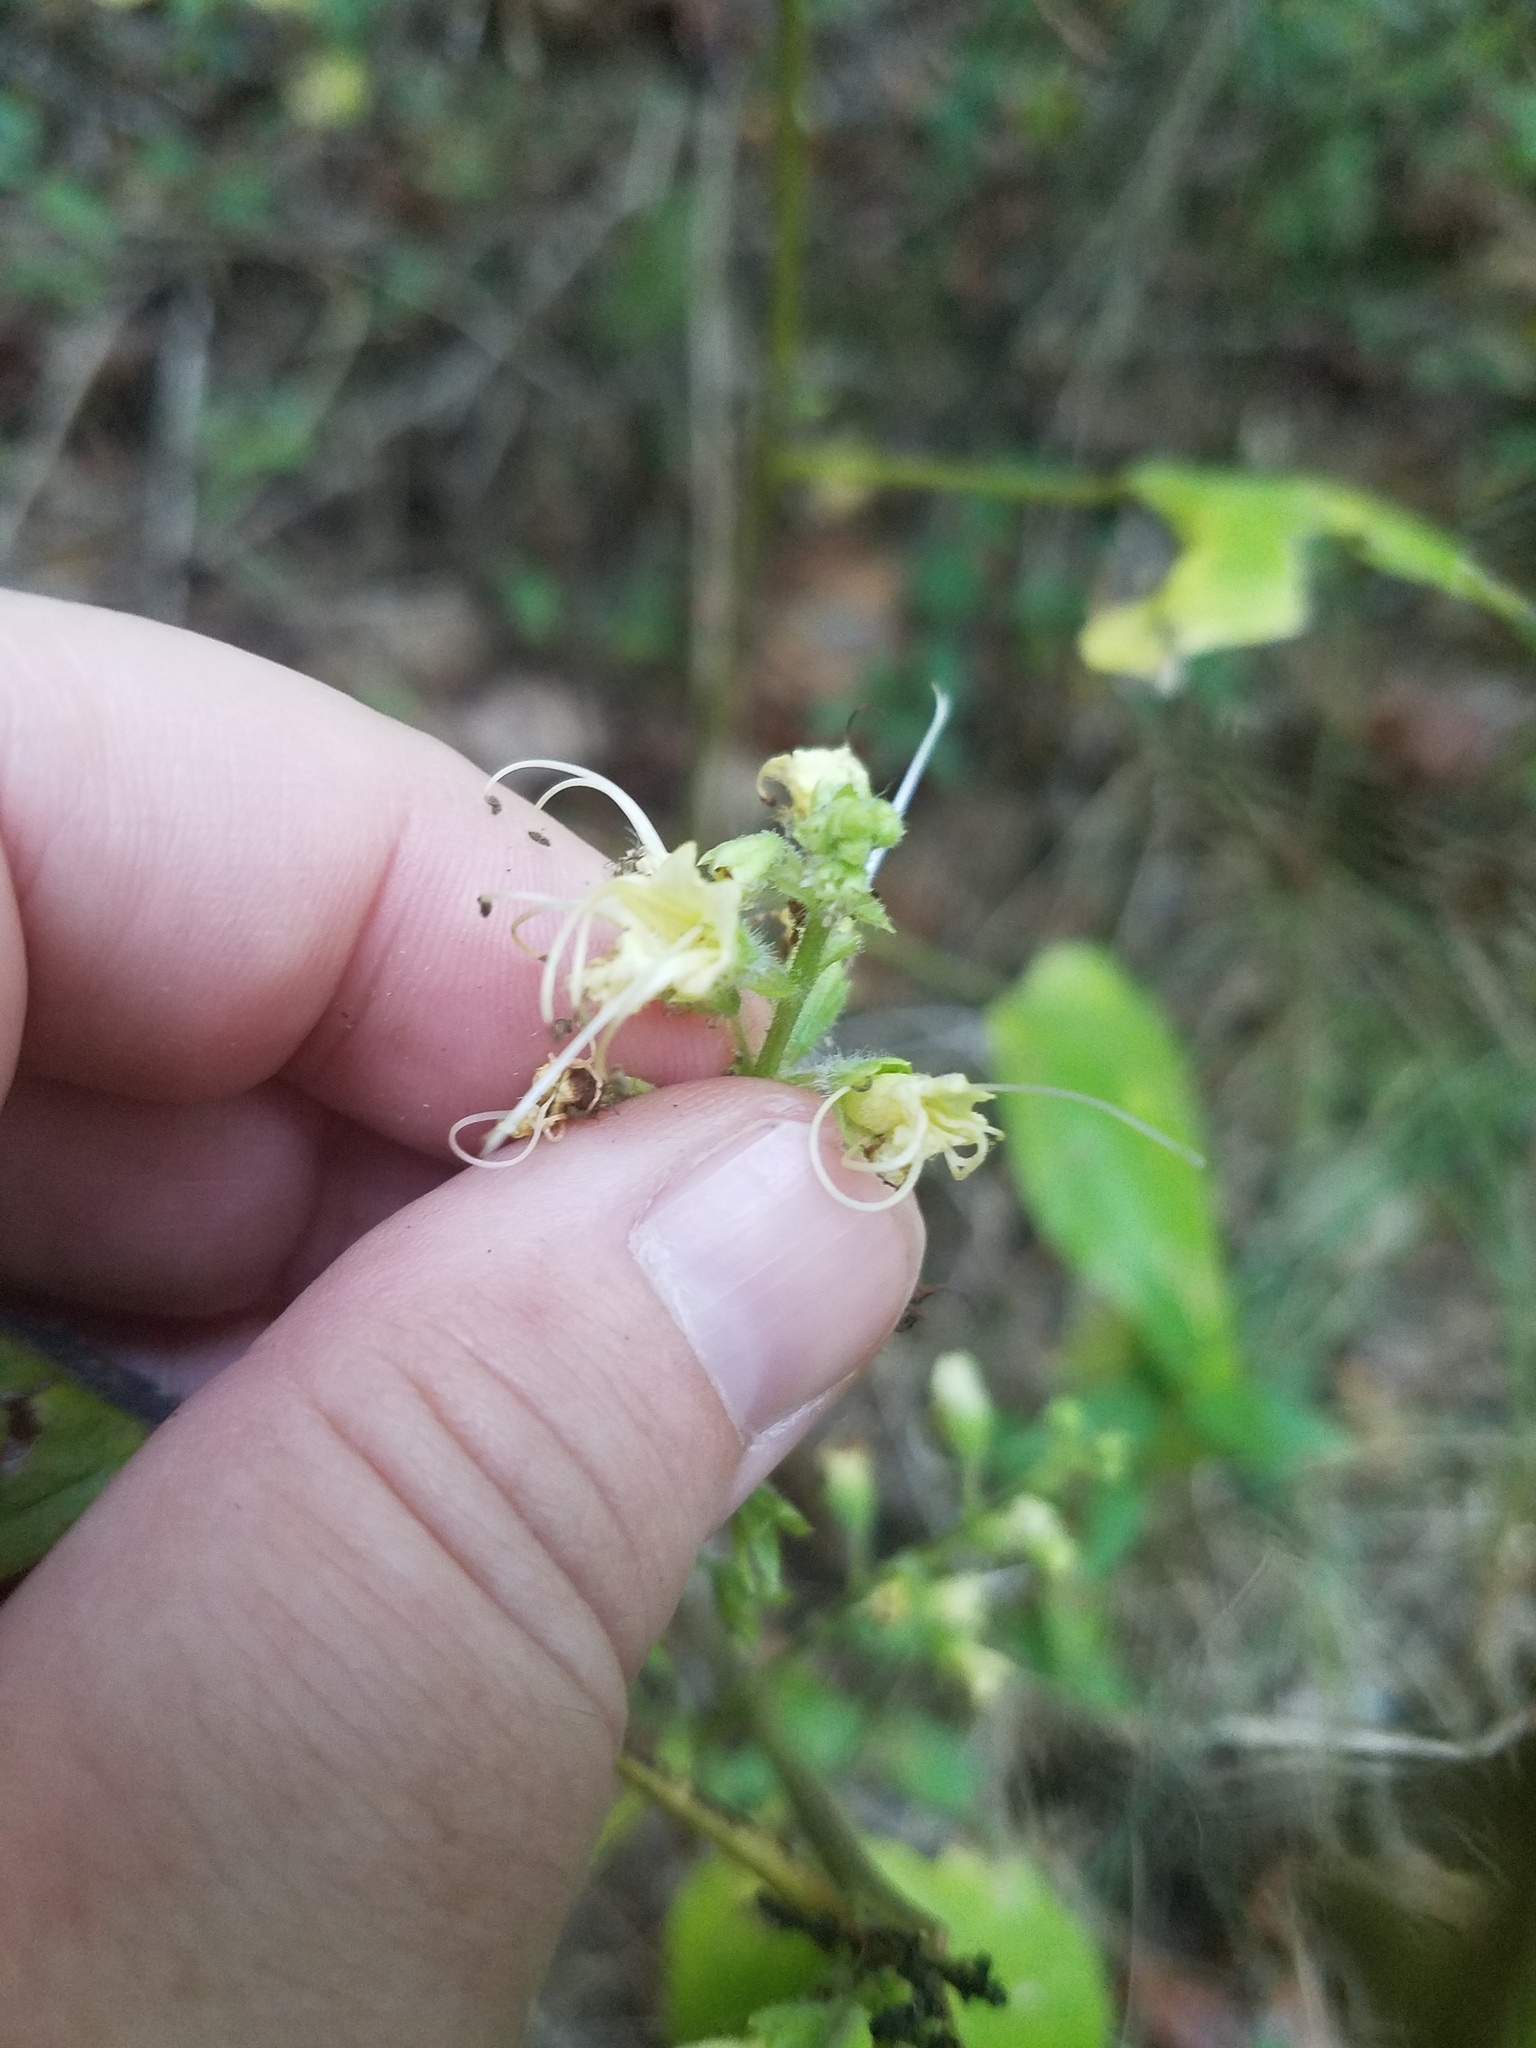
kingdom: Plantae
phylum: Tracheophyta
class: Magnoliopsida
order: Lamiales
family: Lamiaceae
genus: Collinsonia
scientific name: Collinsonia canadensis
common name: Northern horsebalm
